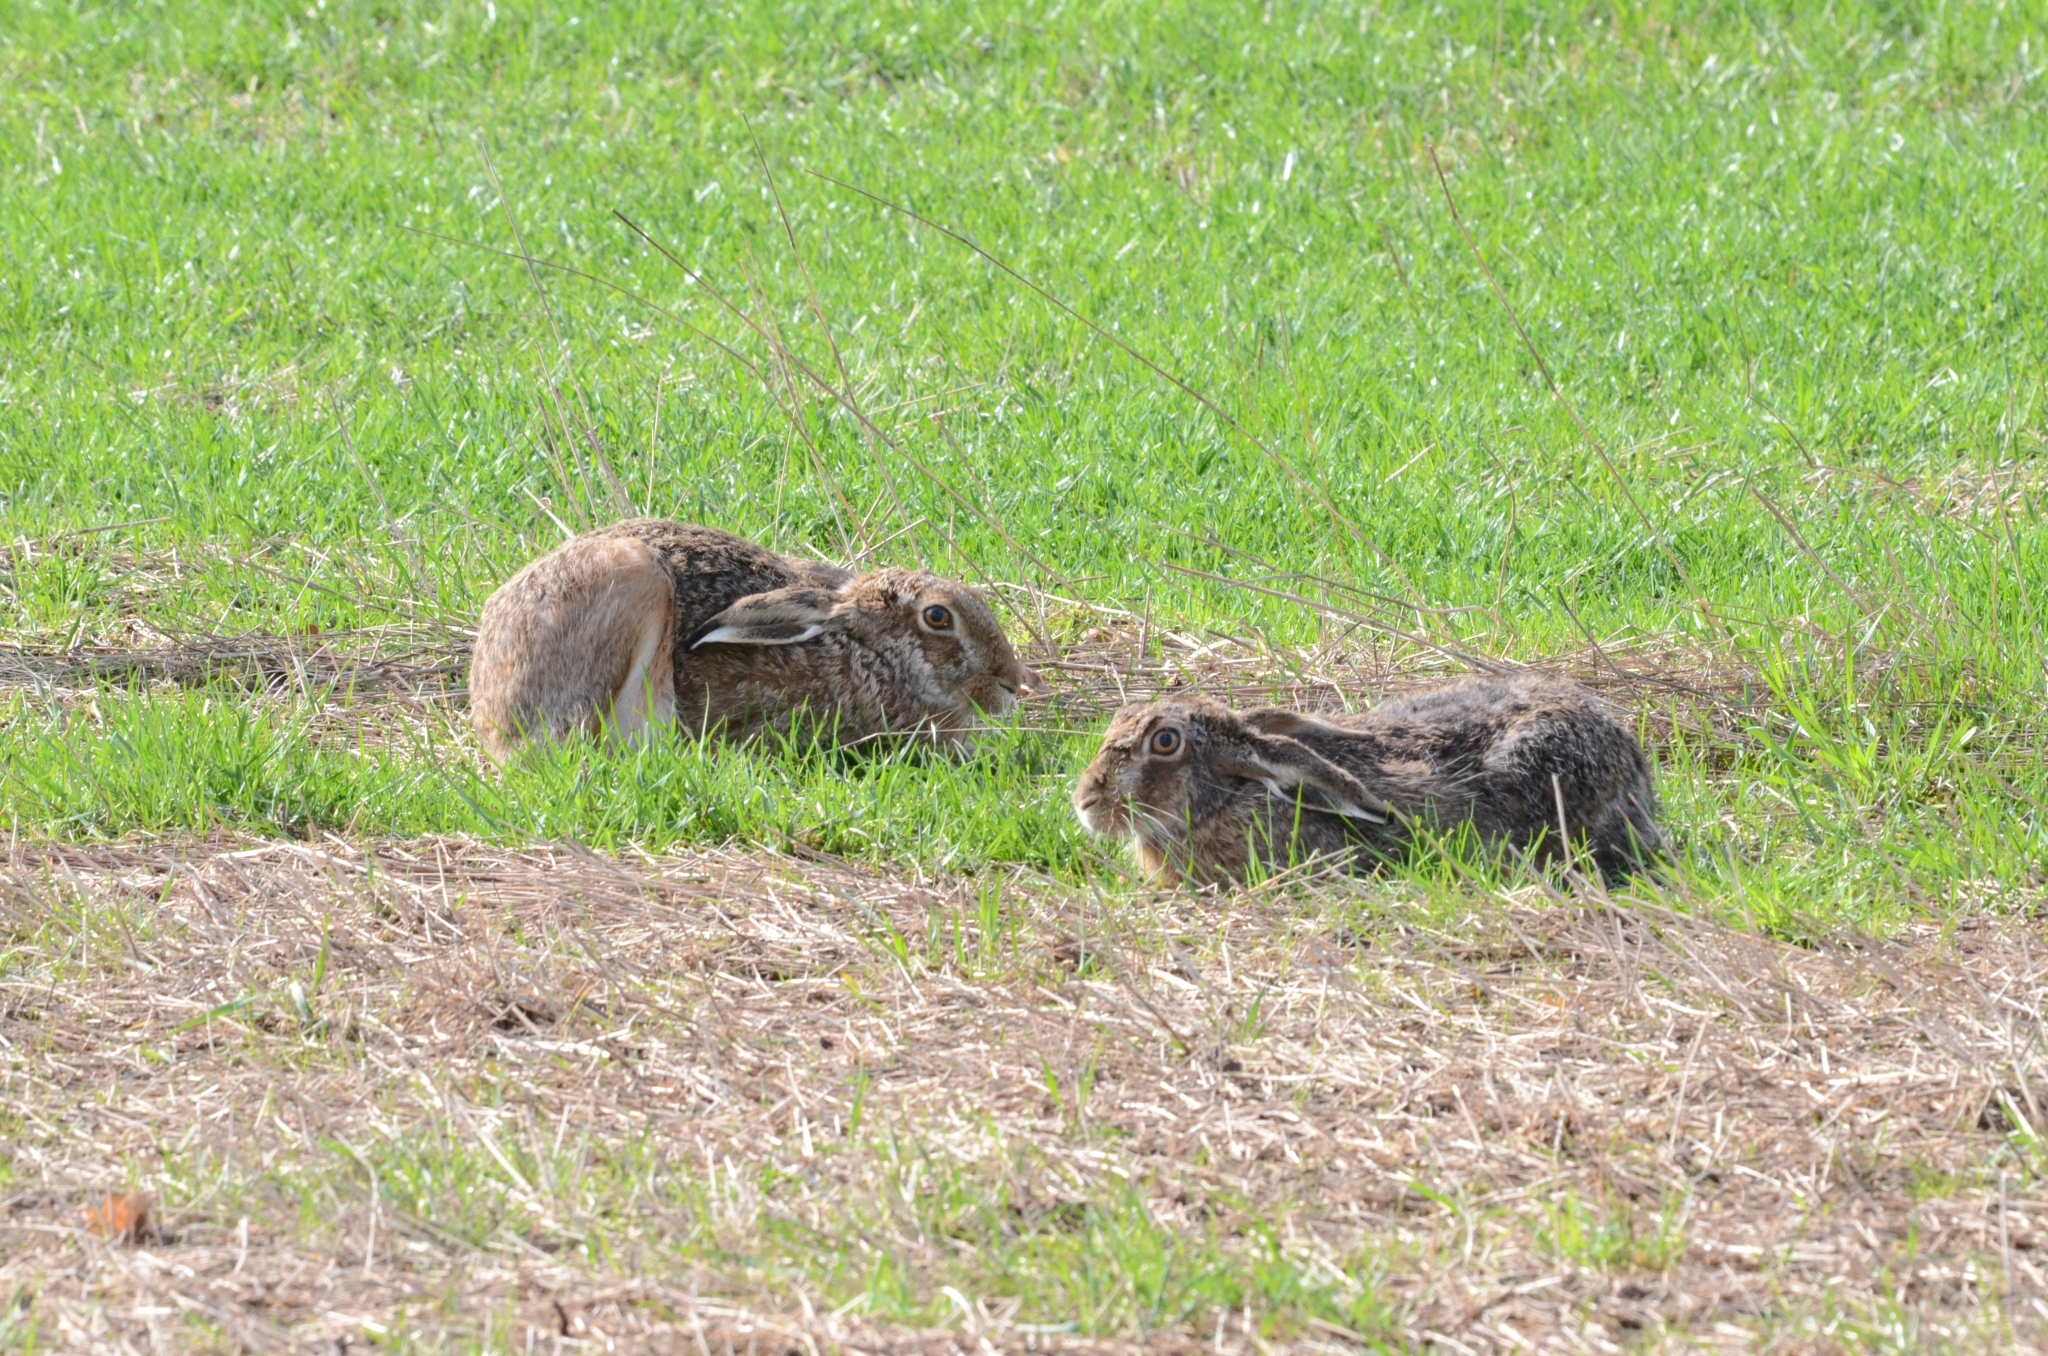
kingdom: Animalia
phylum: Chordata
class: Mammalia
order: Lagomorpha
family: Leporidae
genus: Lepus
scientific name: Lepus europaeus
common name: European hare
